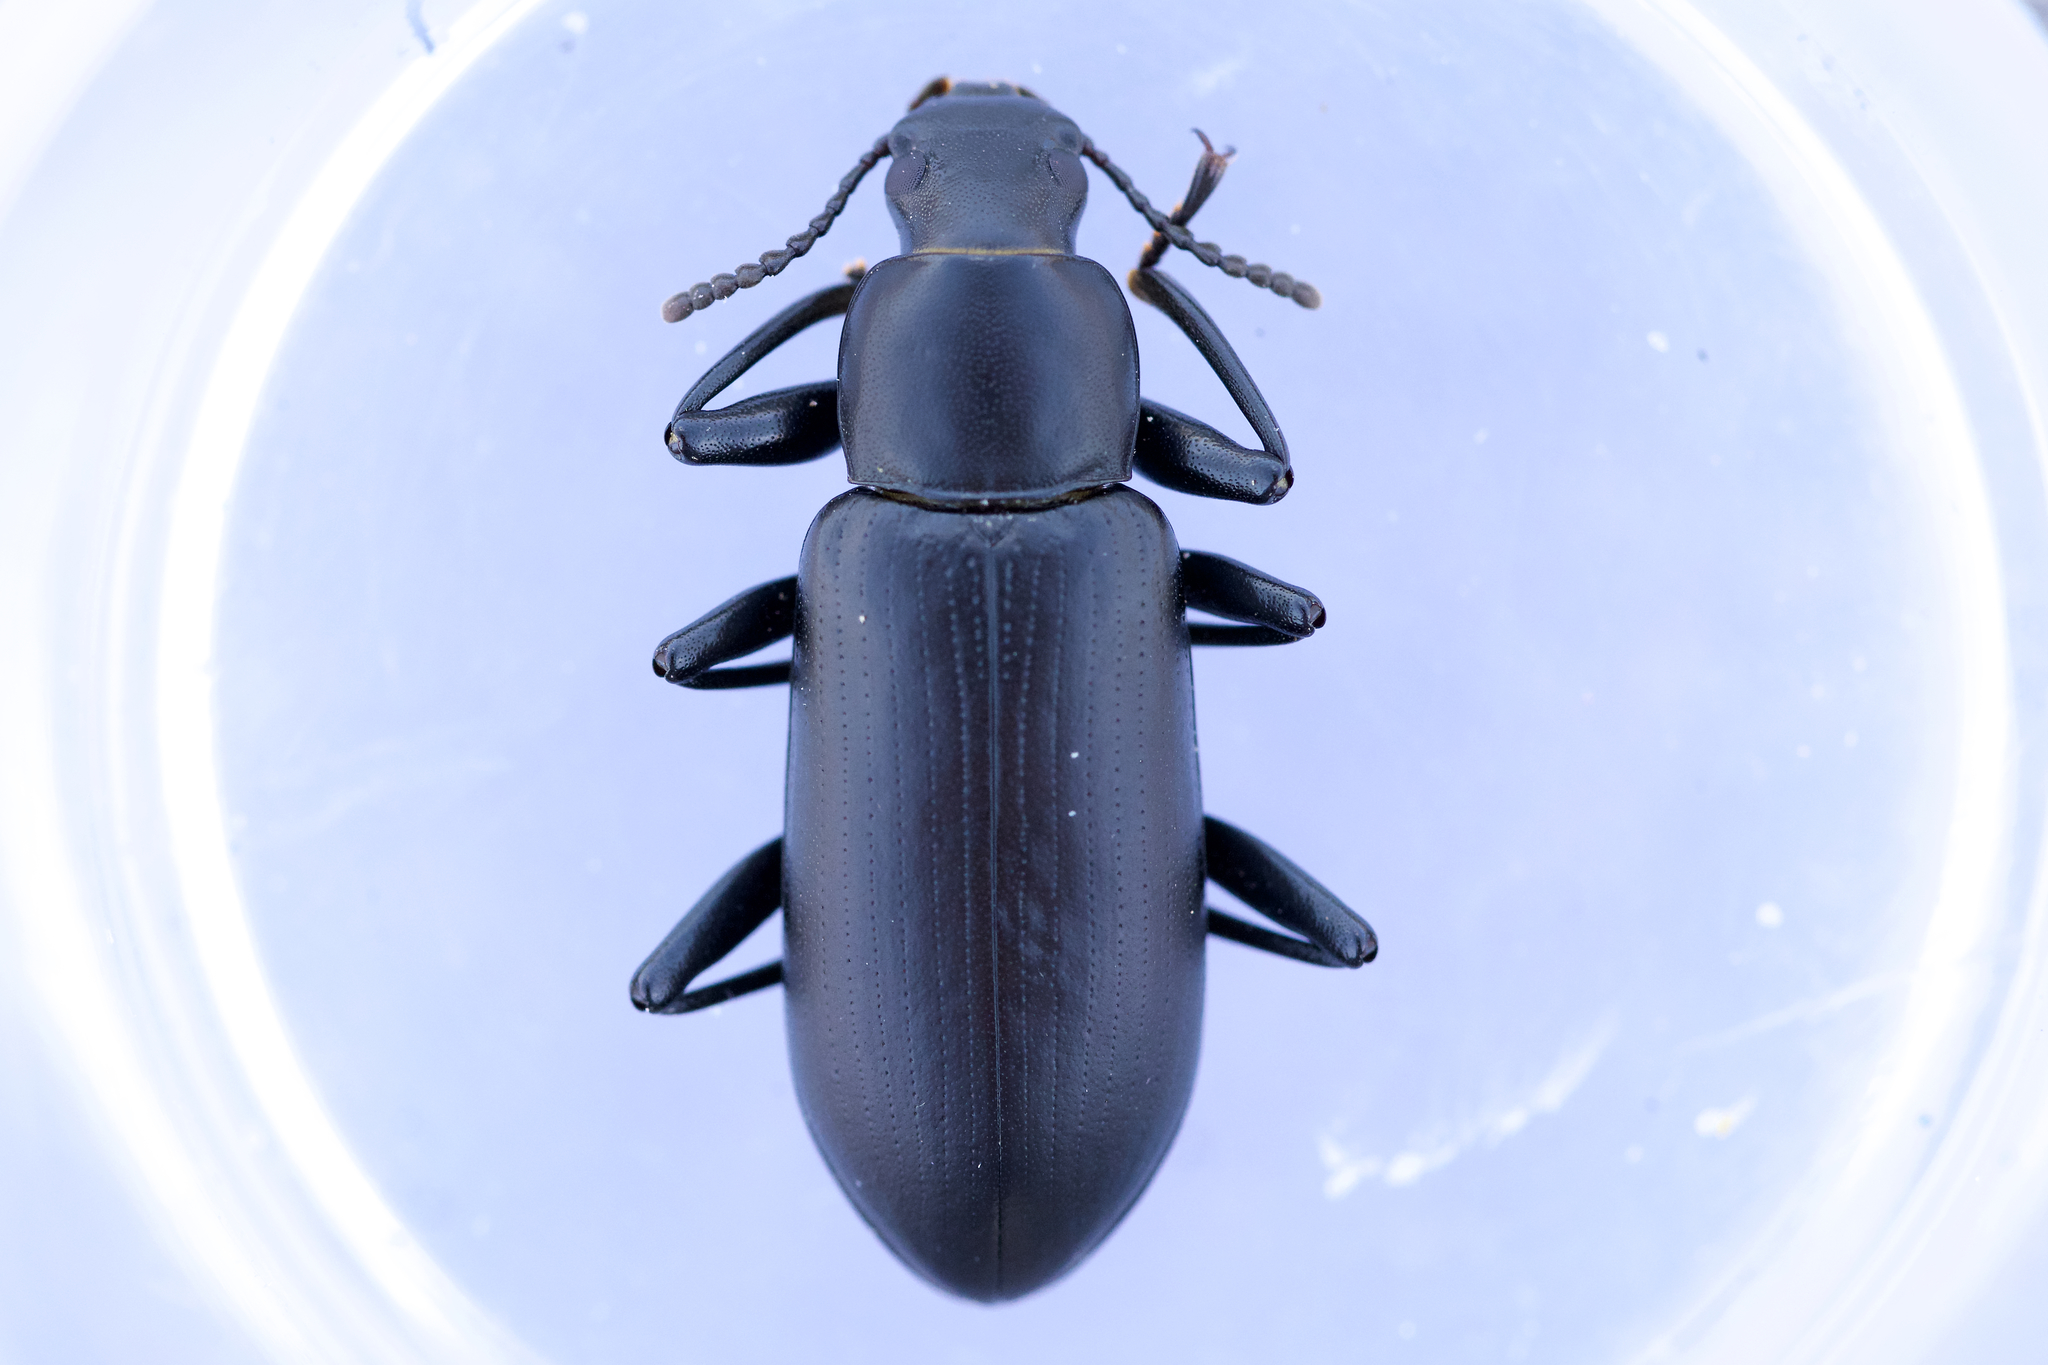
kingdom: Animalia
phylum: Arthropoda
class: Insecta
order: Coleoptera
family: Tenebrionidae
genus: Alobates
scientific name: Alobates pensylvanicus
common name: False mealworm beetle
